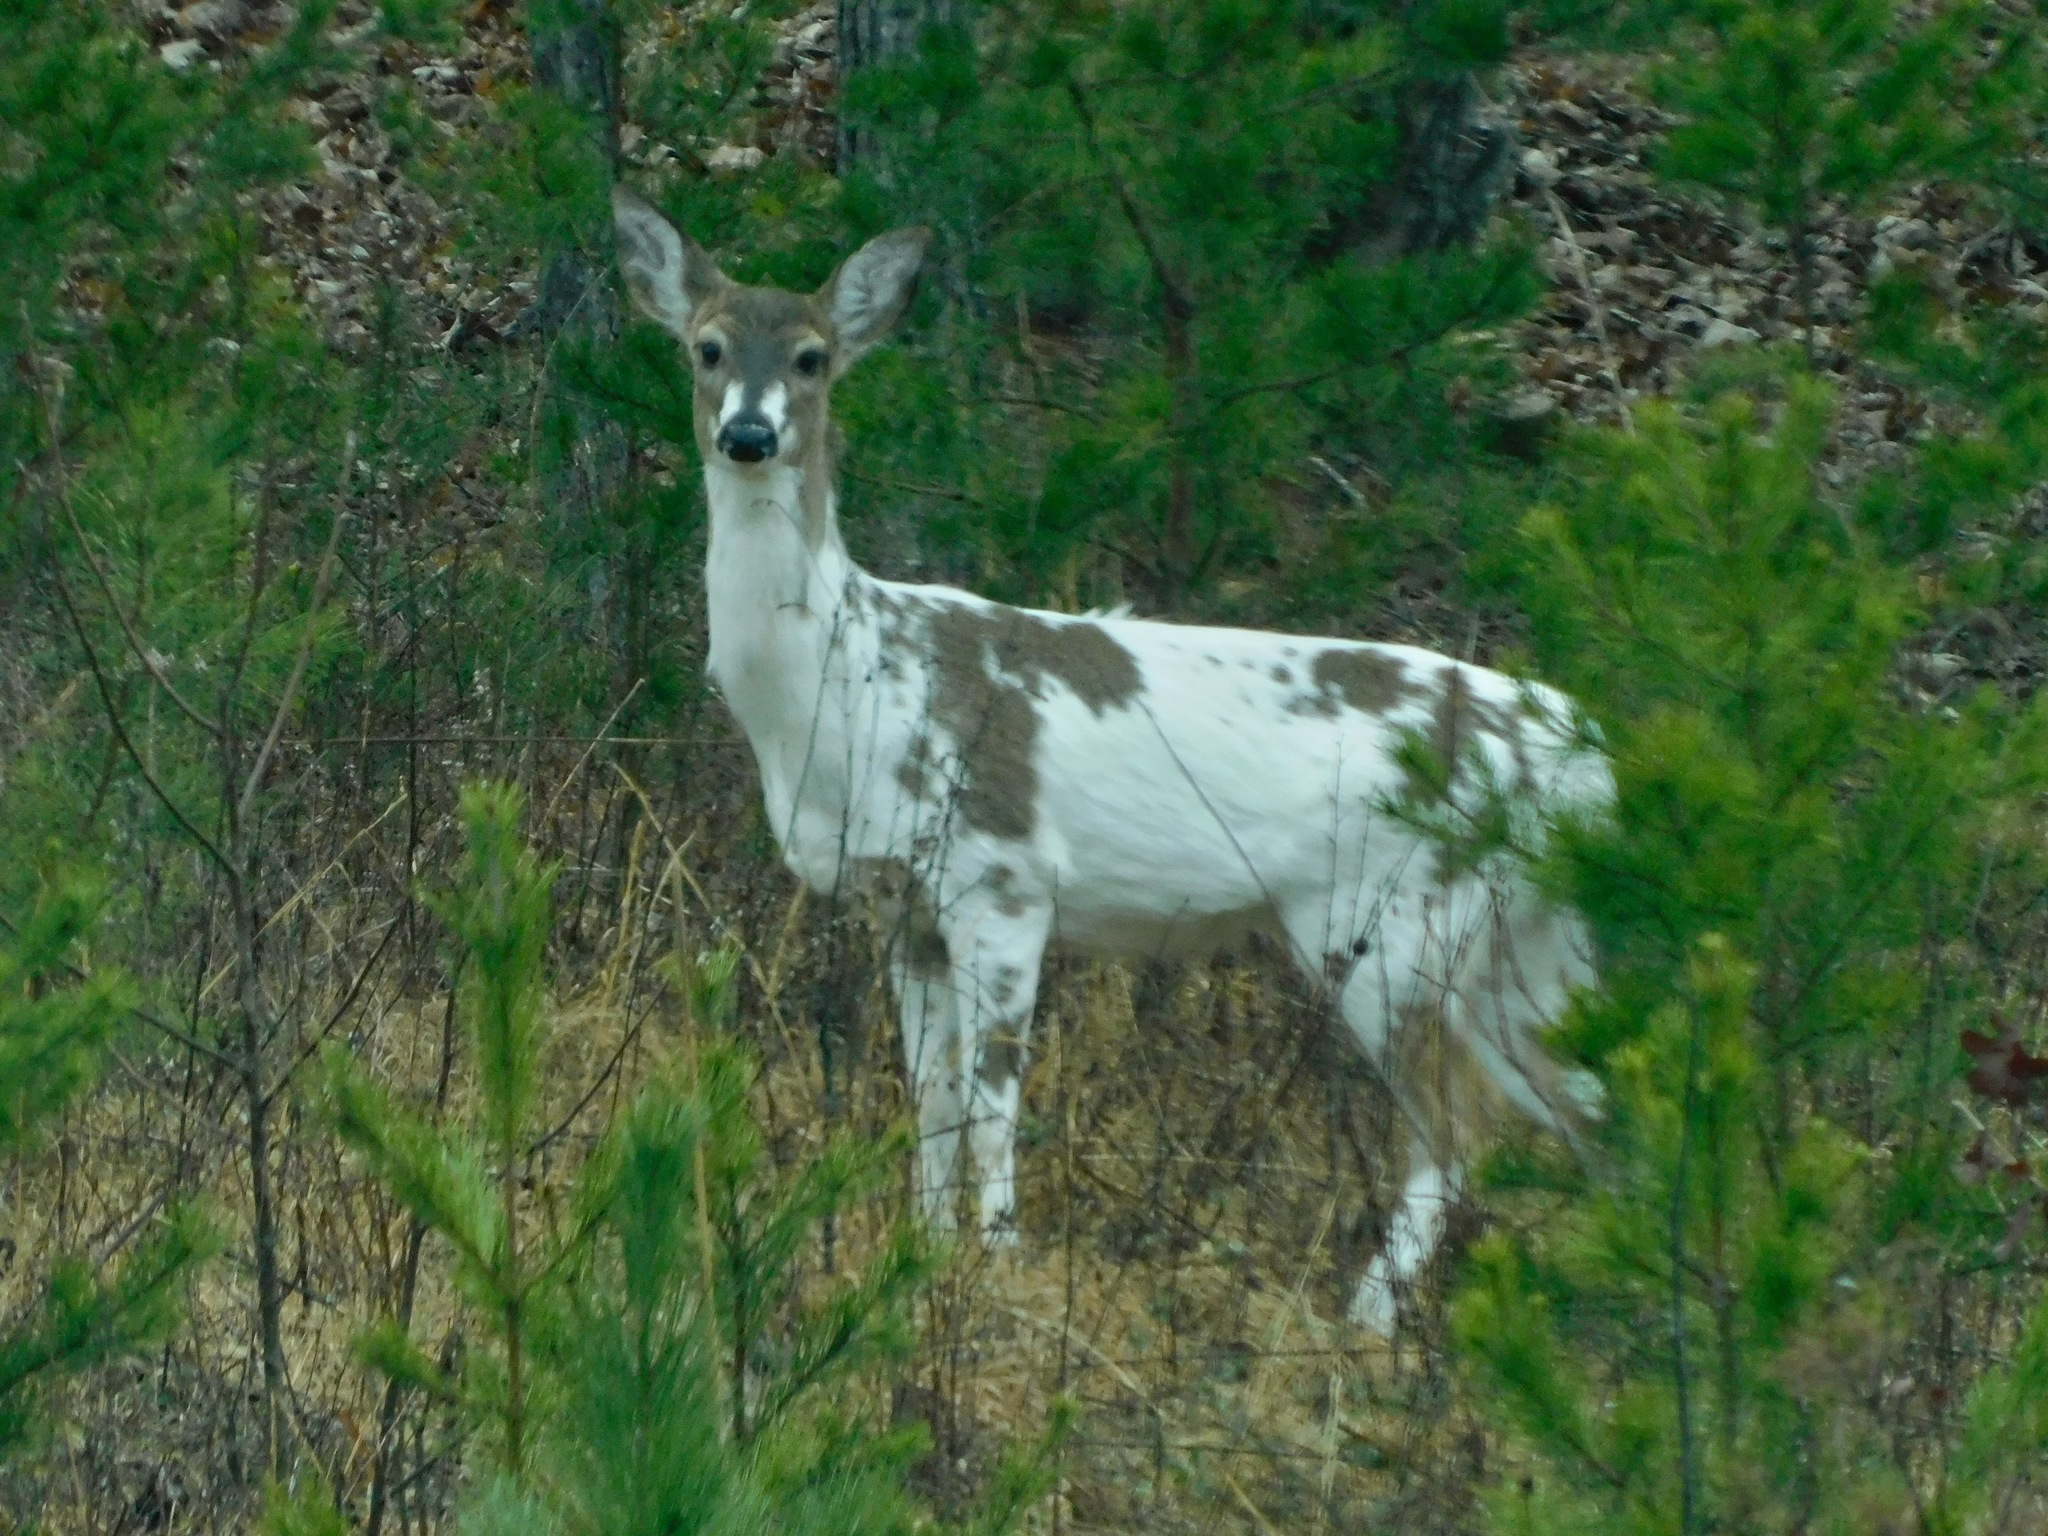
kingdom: Animalia
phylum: Chordata
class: Mammalia
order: Artiodactyla
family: Cervidae
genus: Odocoileus
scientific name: Odocoileus virginianus
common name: White-tailed deer
